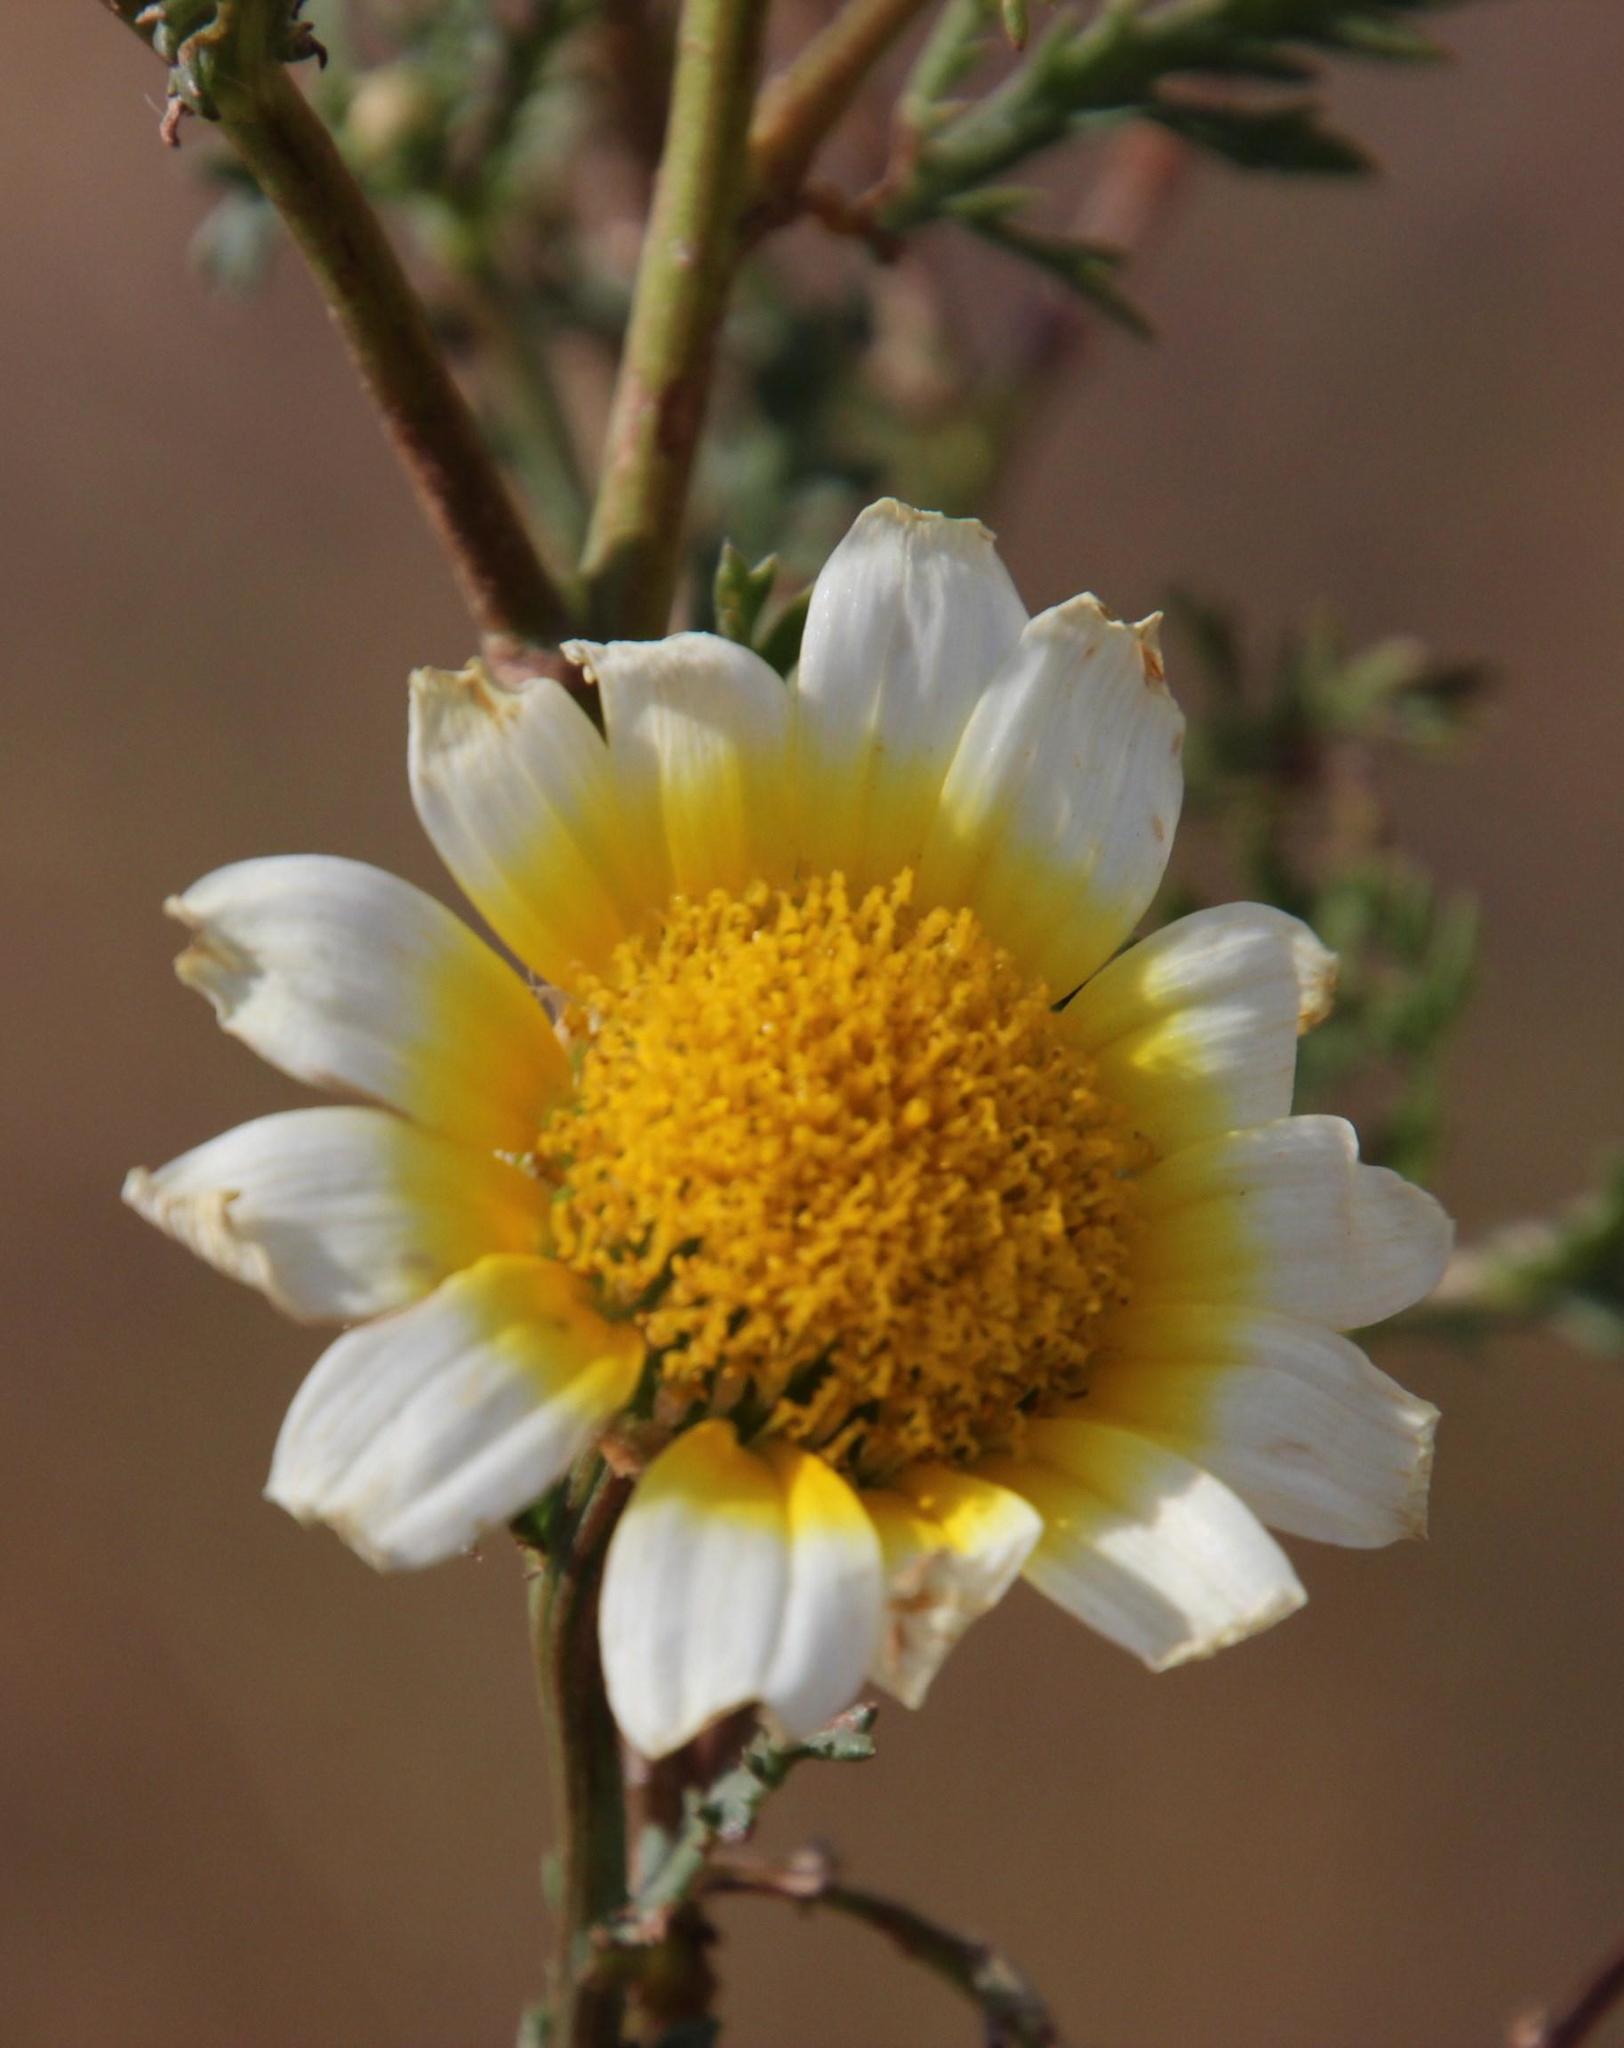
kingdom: Plantae
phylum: Tracheophyta
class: Magnoliopsida
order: Asterales
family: Asteraceae
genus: Glebionis
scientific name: Glebionis coronaria
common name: Crowndaisy
